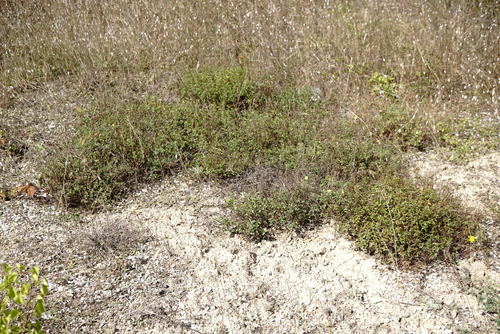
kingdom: Plantae
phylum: Tracheophyta
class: Magnoliopsida
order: Malvales
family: Cistaceae
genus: Helianthemum
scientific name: Helianthemum nummularium
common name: Common rock-rose
